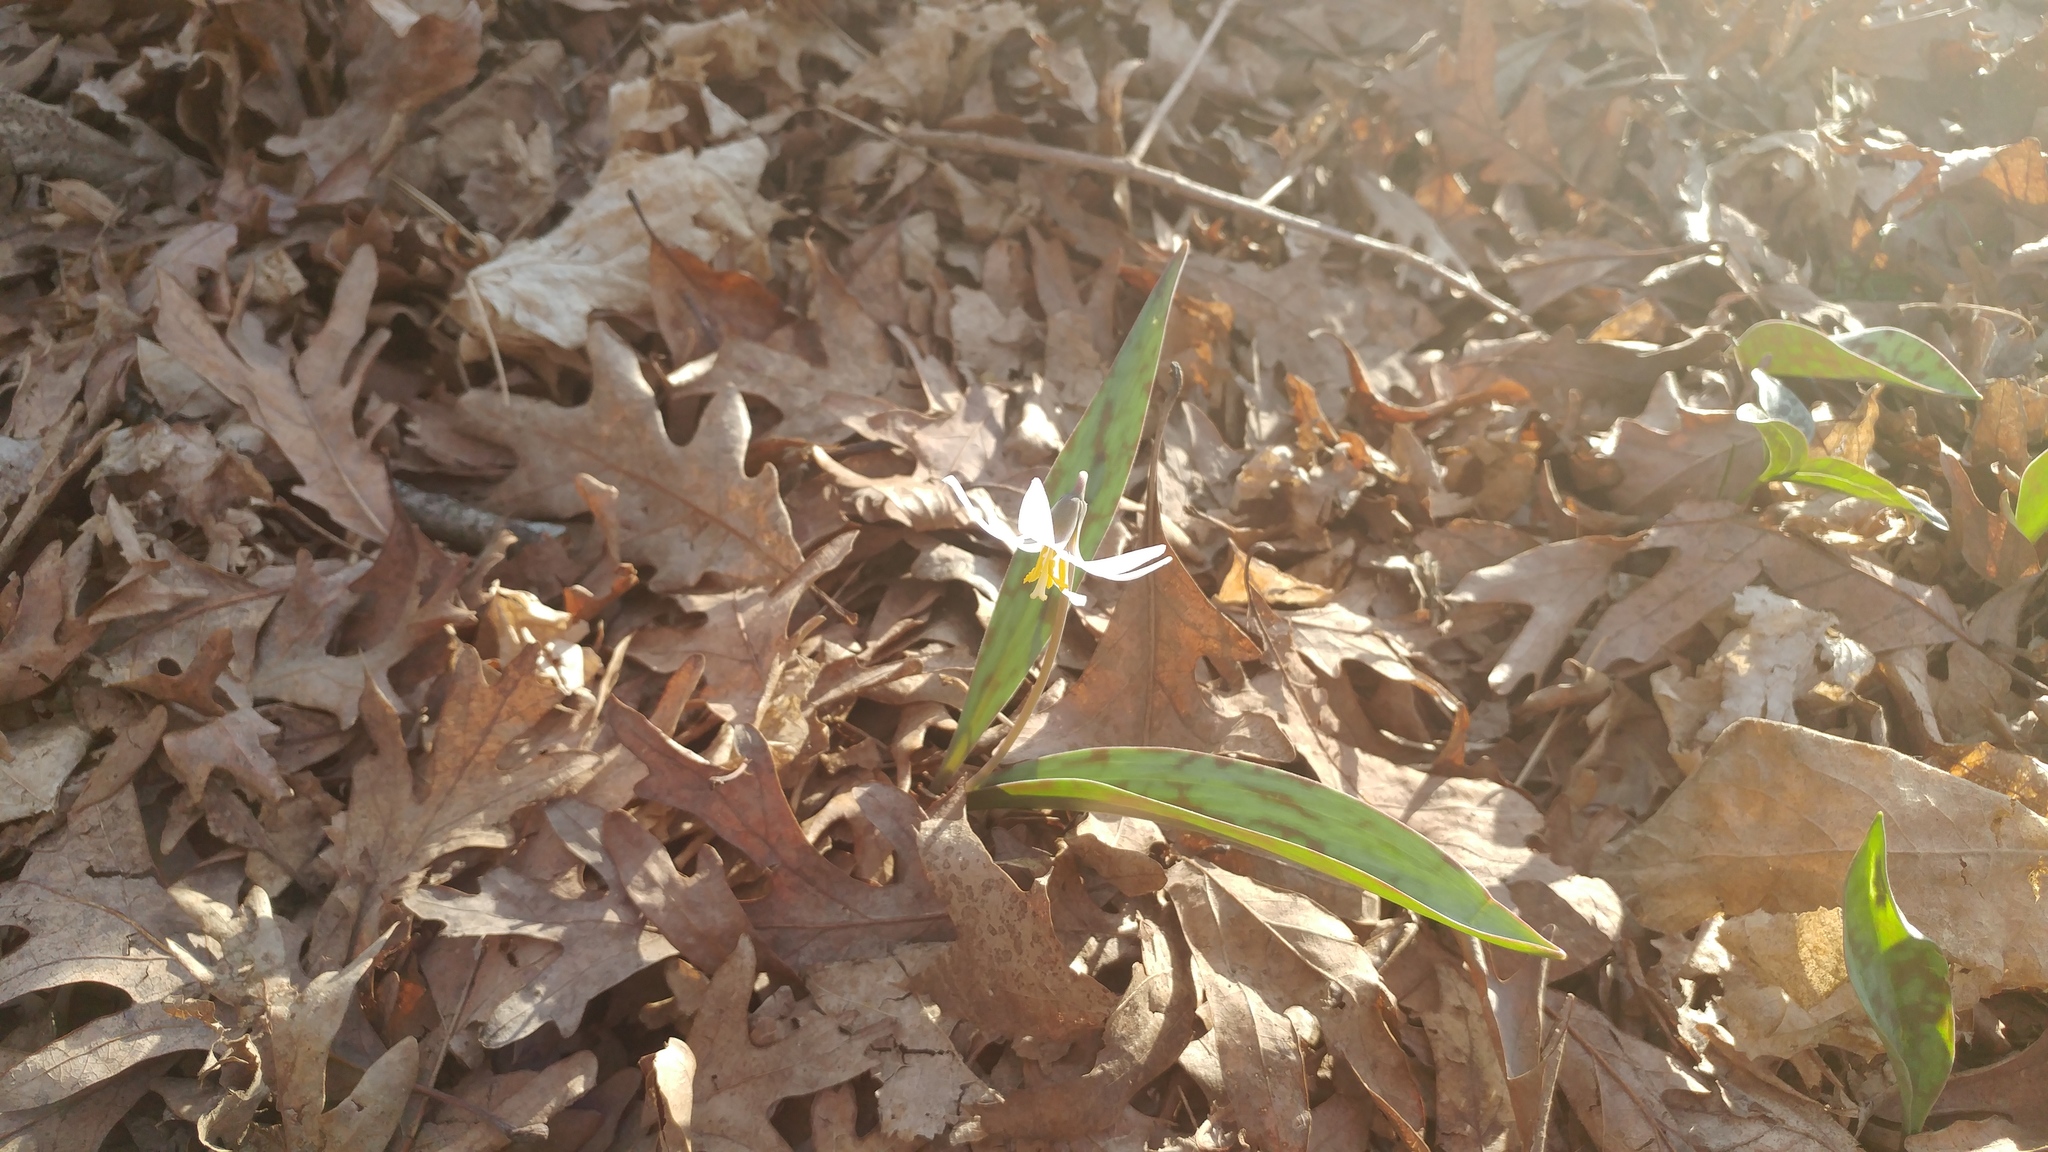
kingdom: Plantae
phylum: Tracheophyta
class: Liliopsida
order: Liliales
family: Liliaceae
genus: Erythronium
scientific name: Erythronium albidum
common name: White trout-lily
